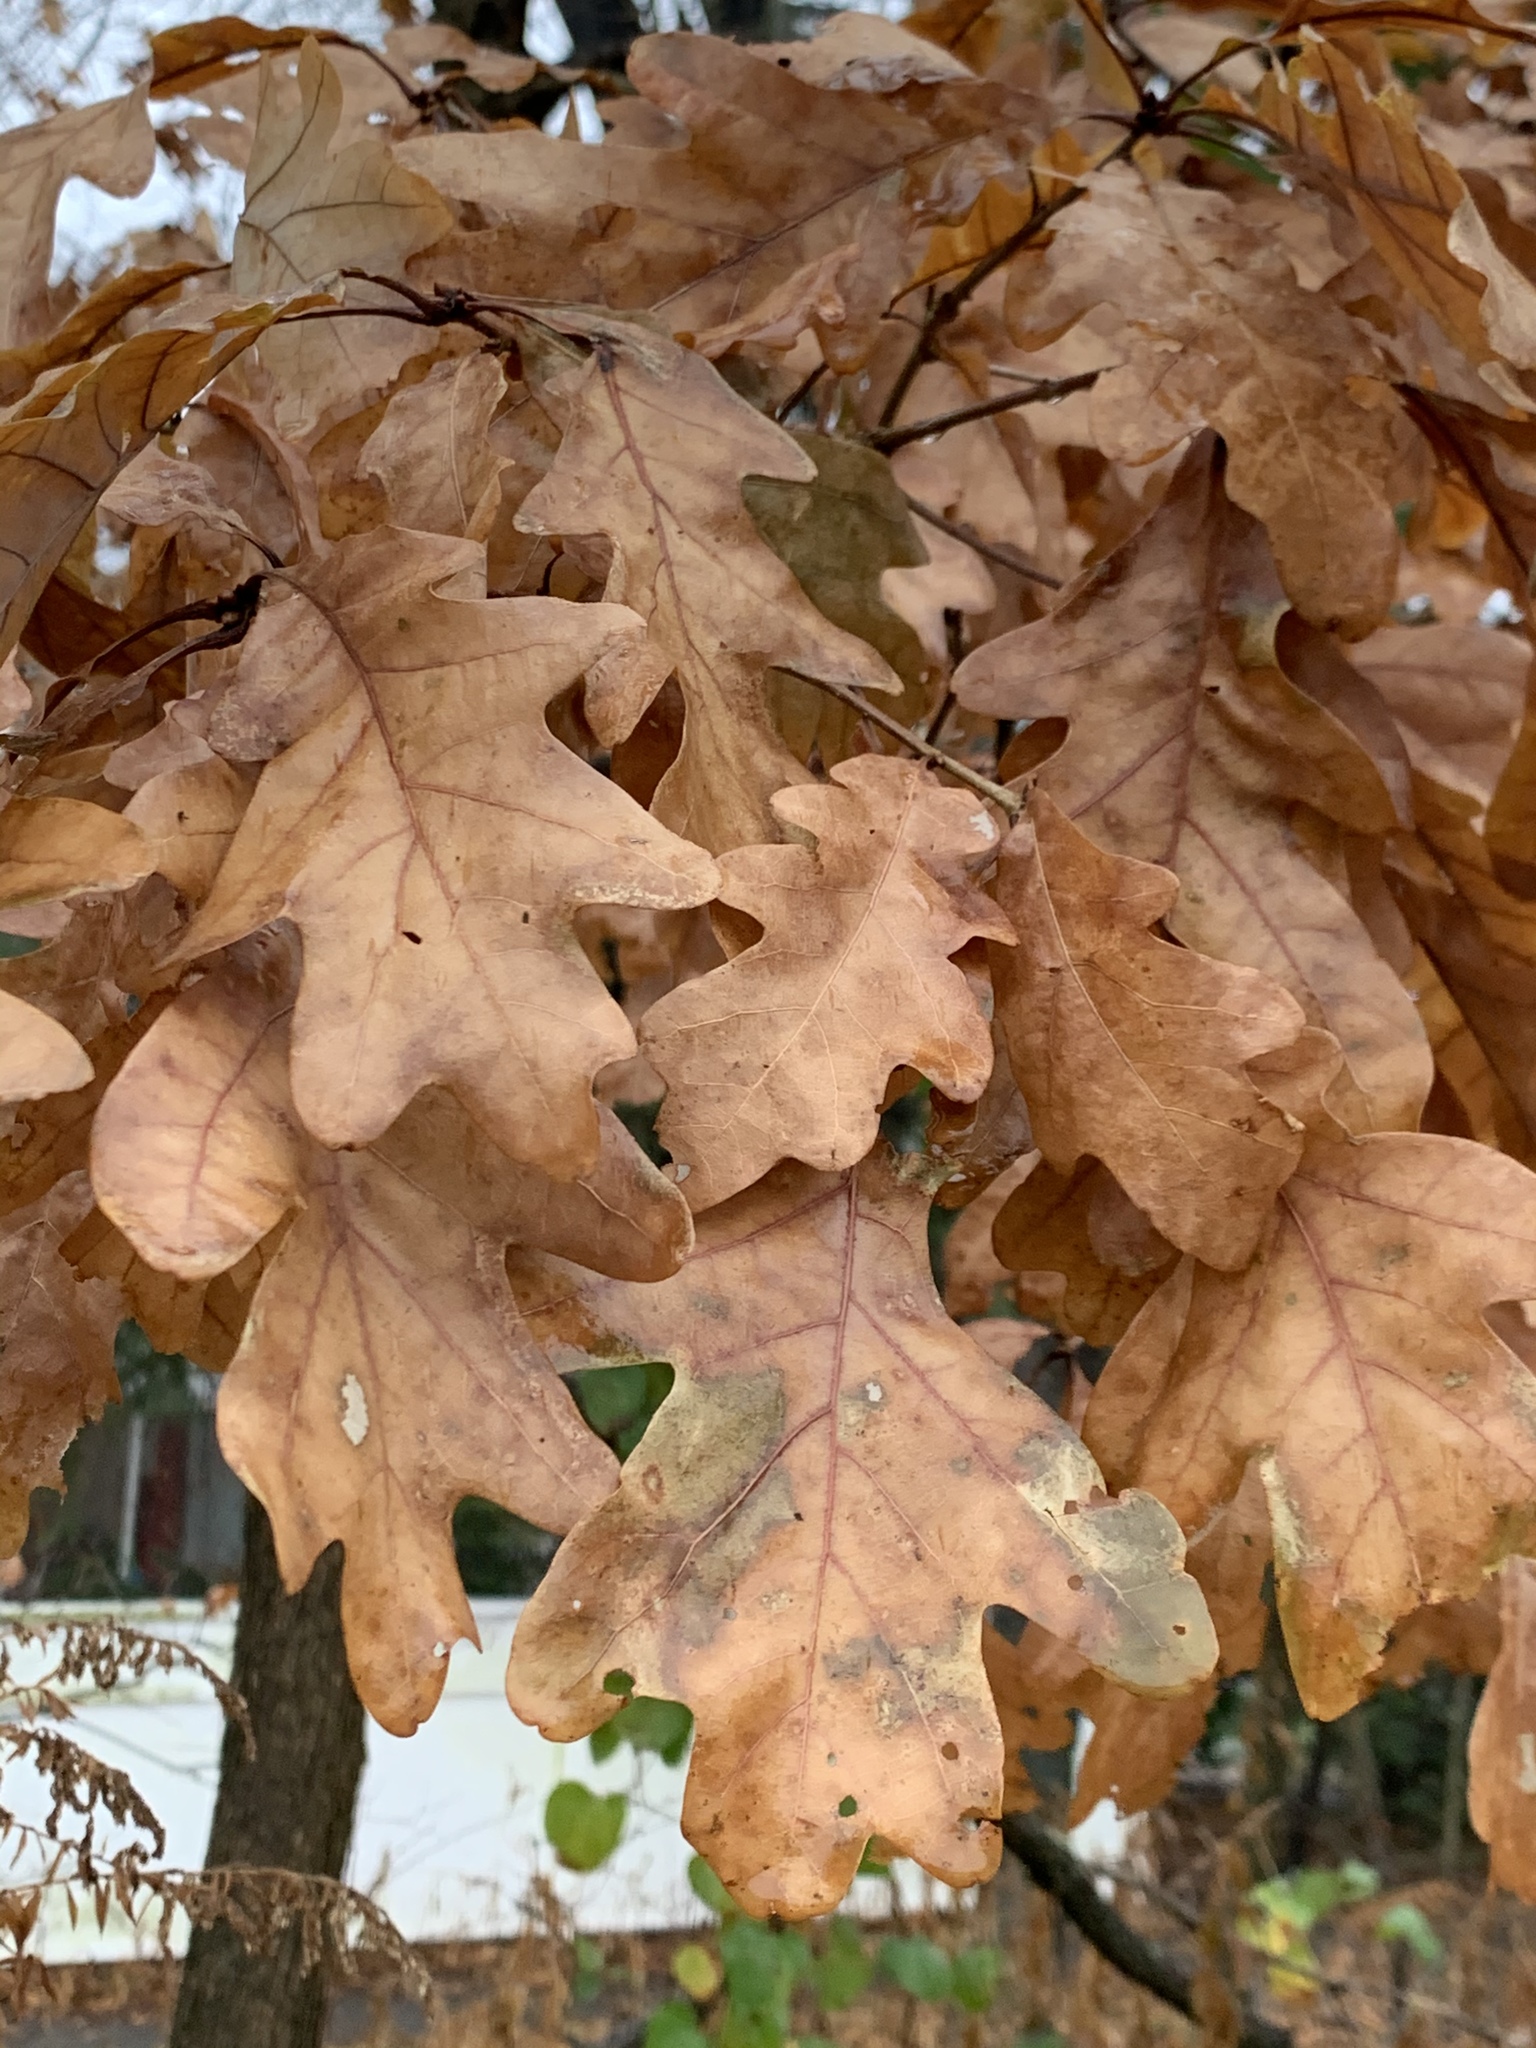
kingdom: Plantae
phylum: Tracheophyta
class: Magnoliopsida
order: Fagales
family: Fagaceae
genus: Quercus
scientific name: Quercus alba
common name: White oak
